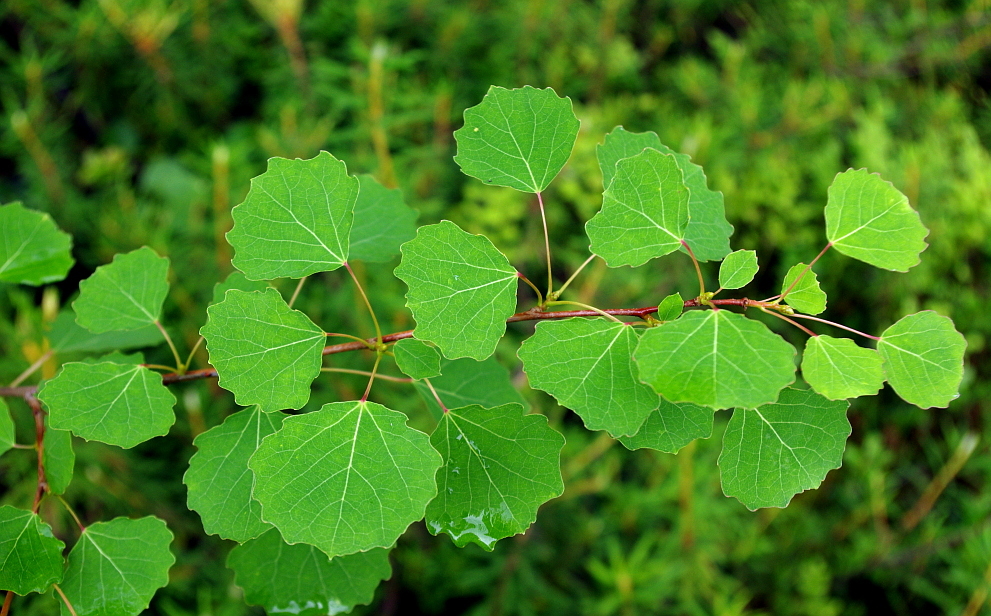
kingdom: Plantae
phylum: Tracheophyta
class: Magnoliopsida
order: Malpighiales
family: Salicaceae
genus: Populus
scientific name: Populus tremula
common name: European aspen
